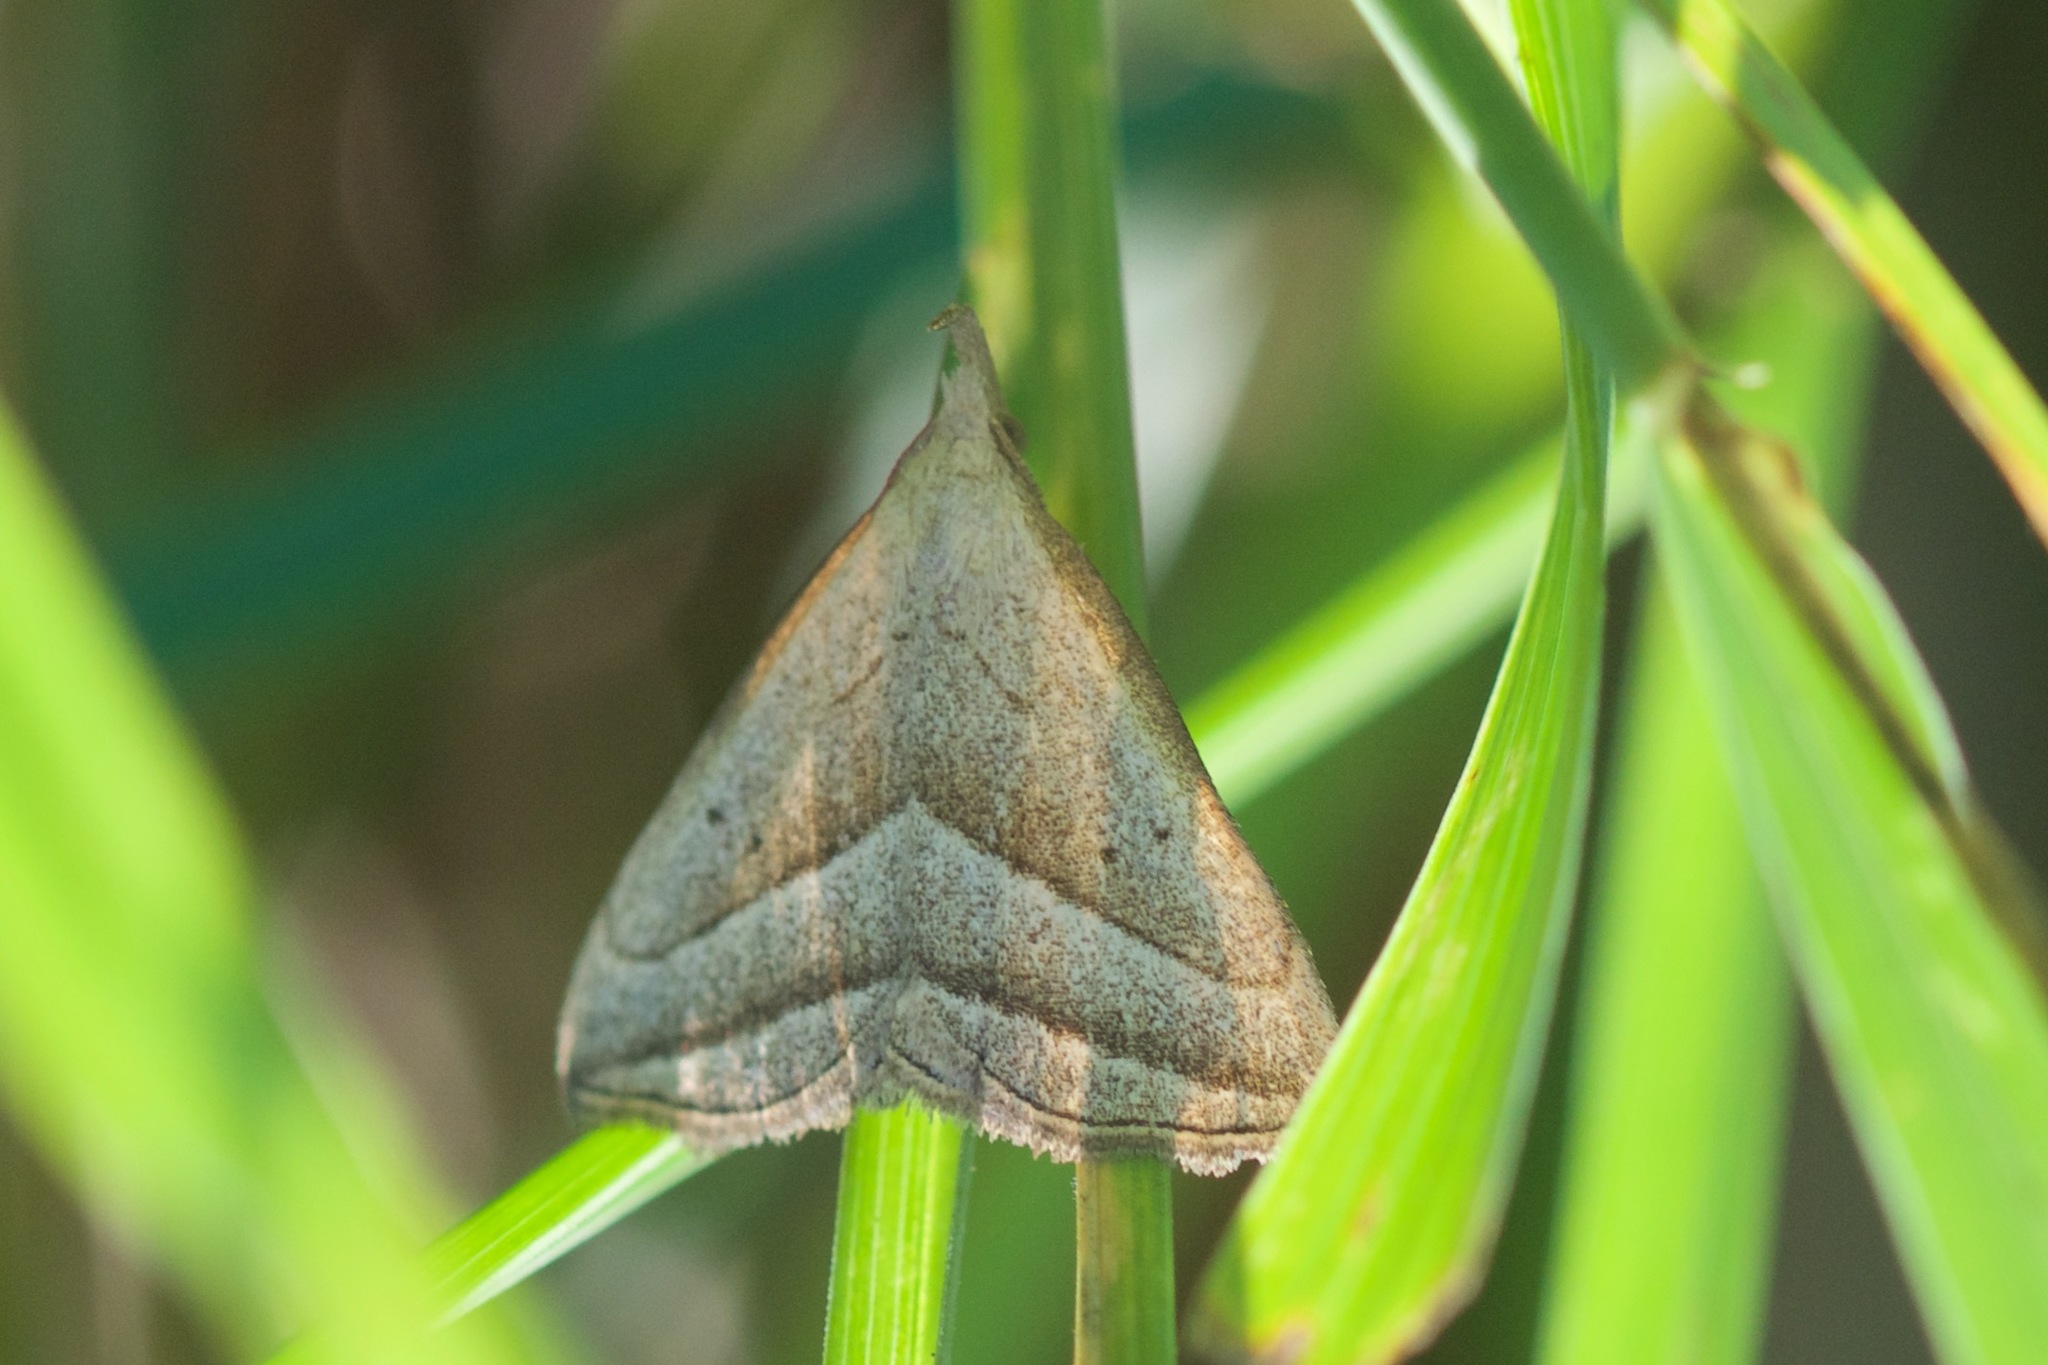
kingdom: Animalia
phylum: Arthropoda
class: Insecta
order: Lepidoptera
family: Erebidae
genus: Macrochilo
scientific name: Macrochilo absorptalis
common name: Slant-lined owlet
